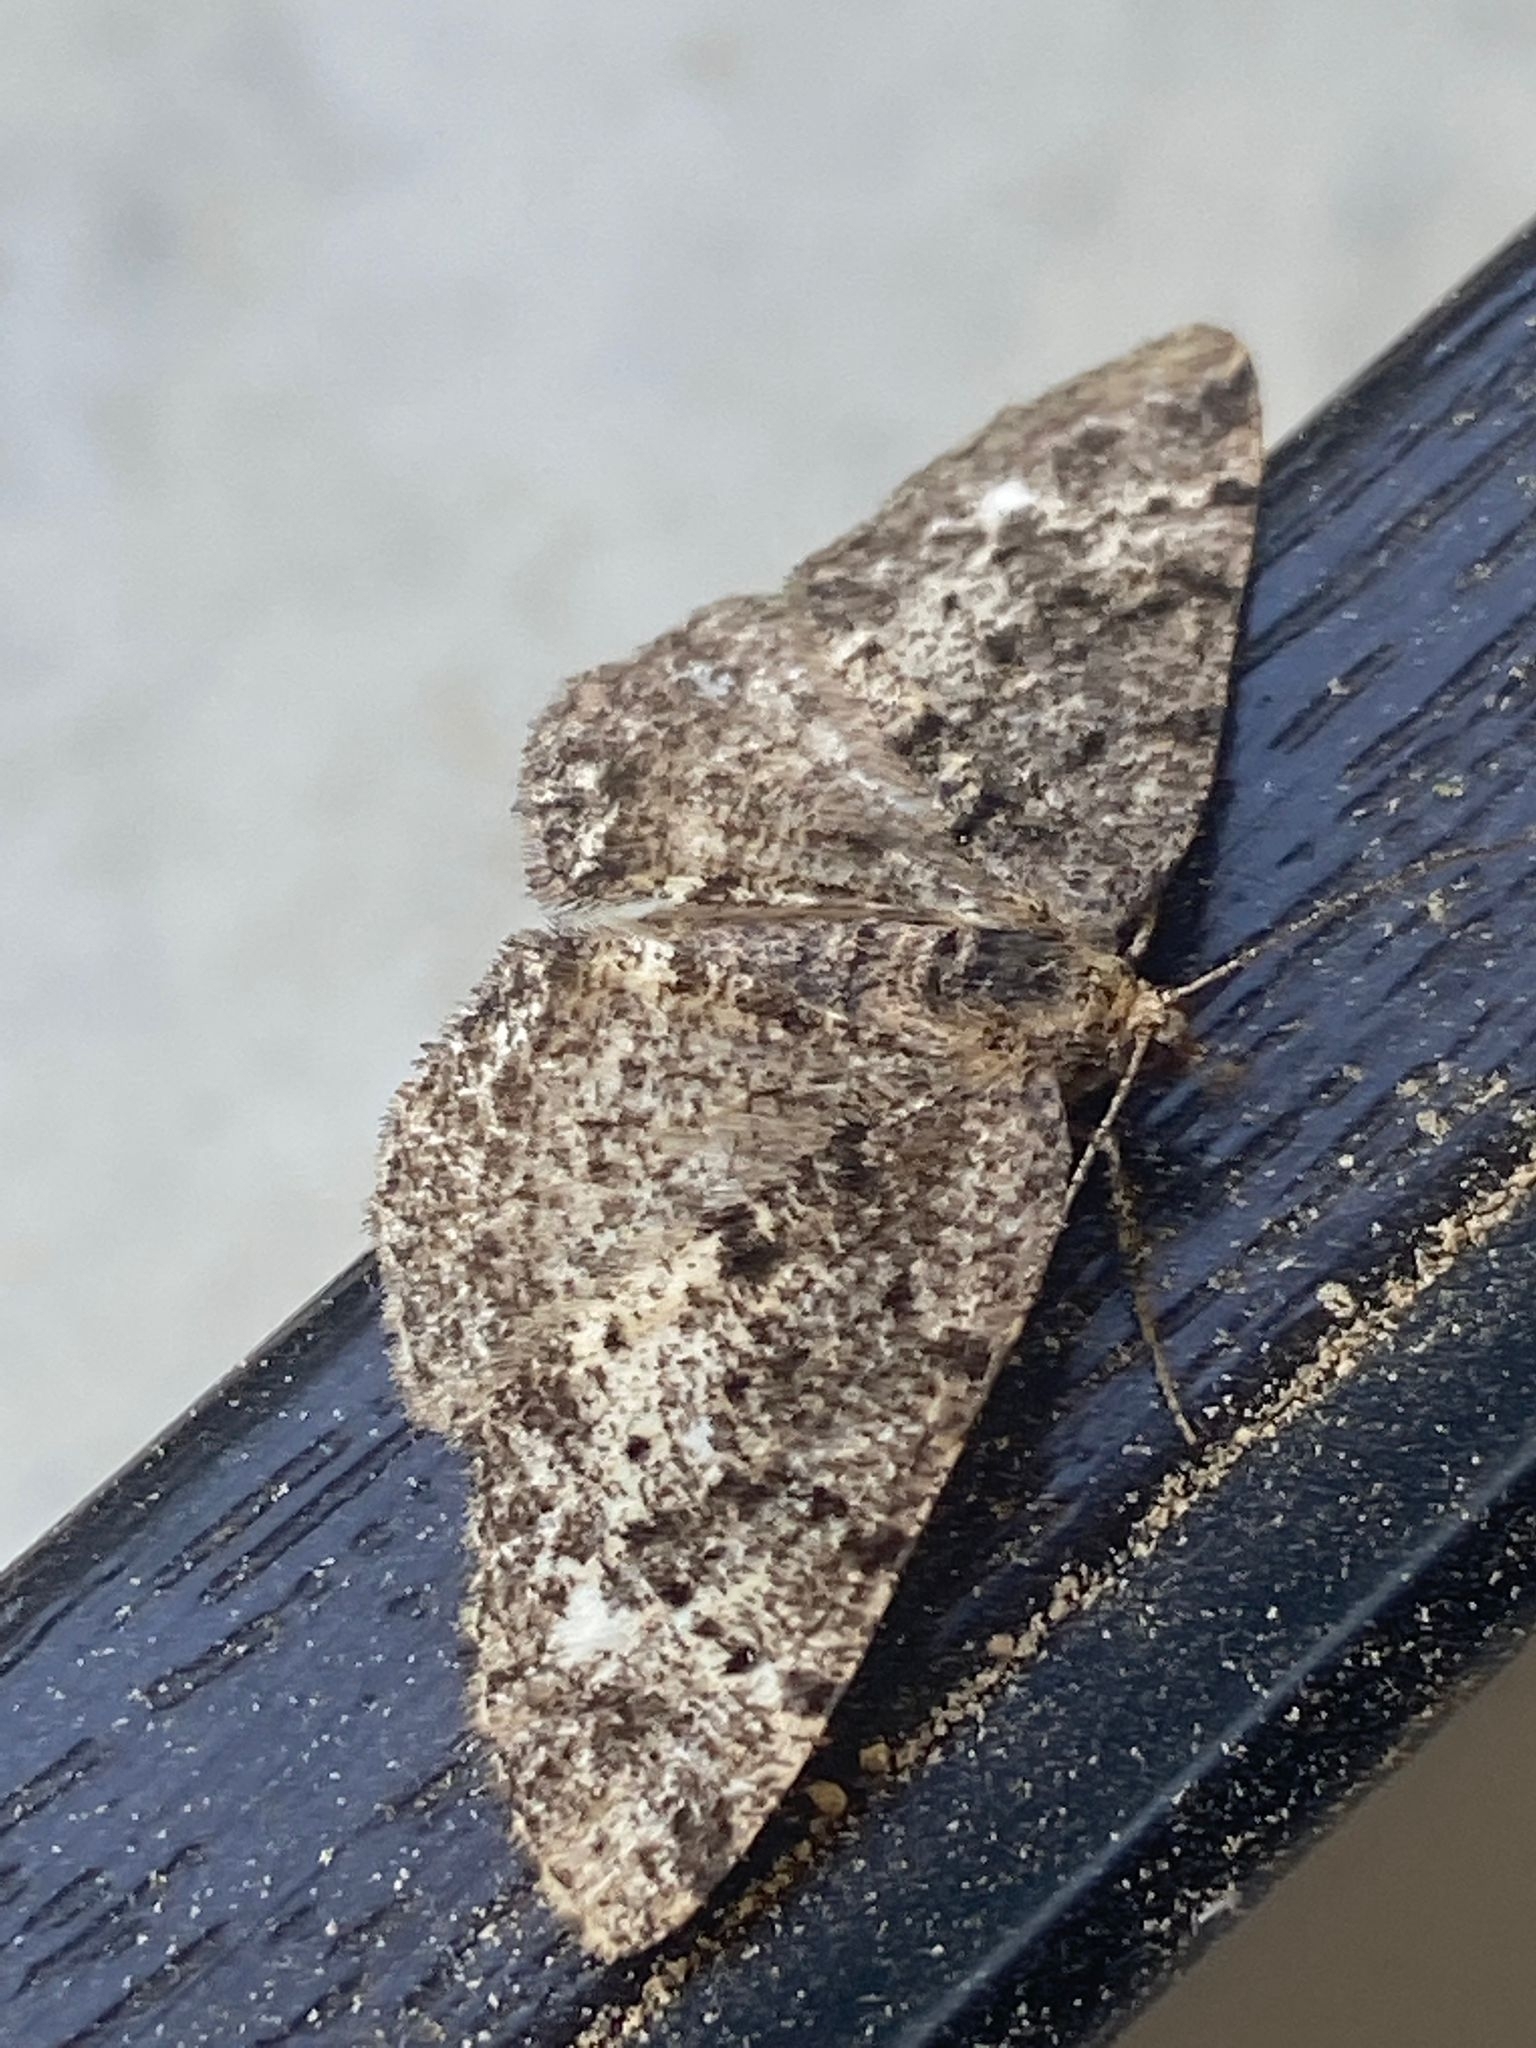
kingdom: Animalia
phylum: Arthropoda
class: Insecta
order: Lepidoptera
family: Geometridae
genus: Parectropis
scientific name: Parectropis similaria
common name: Brindled white-spot
